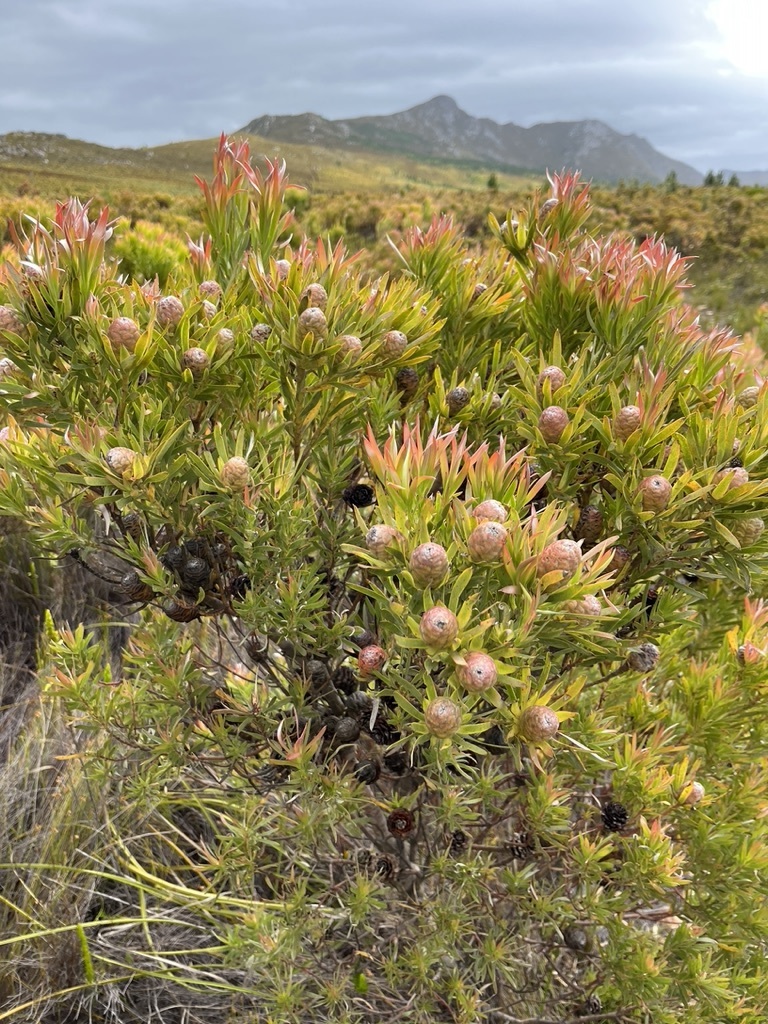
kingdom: Plantae
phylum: Tracheophyta
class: Magnoliopsida
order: Proteales
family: Proteaceae
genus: Leucadendron
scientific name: Leucadendron xanthoconus
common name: Sickle-leaf conebush
